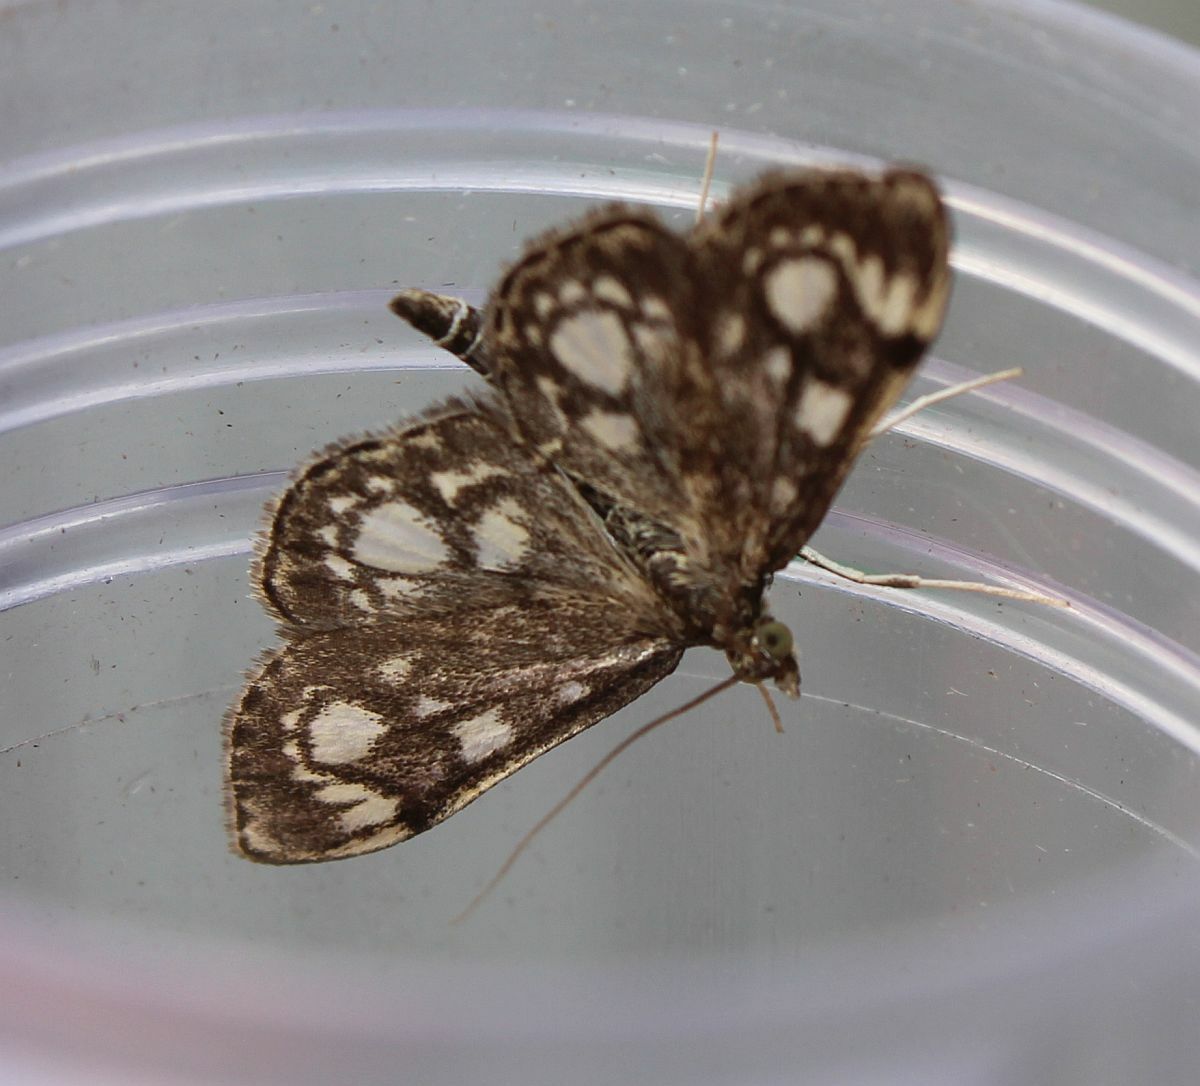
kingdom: Animalia
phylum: Arthropoda
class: Insecta
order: Lepidoptera
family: Crambidae
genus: Anania
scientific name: Anania coronata
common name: Elder pearl
